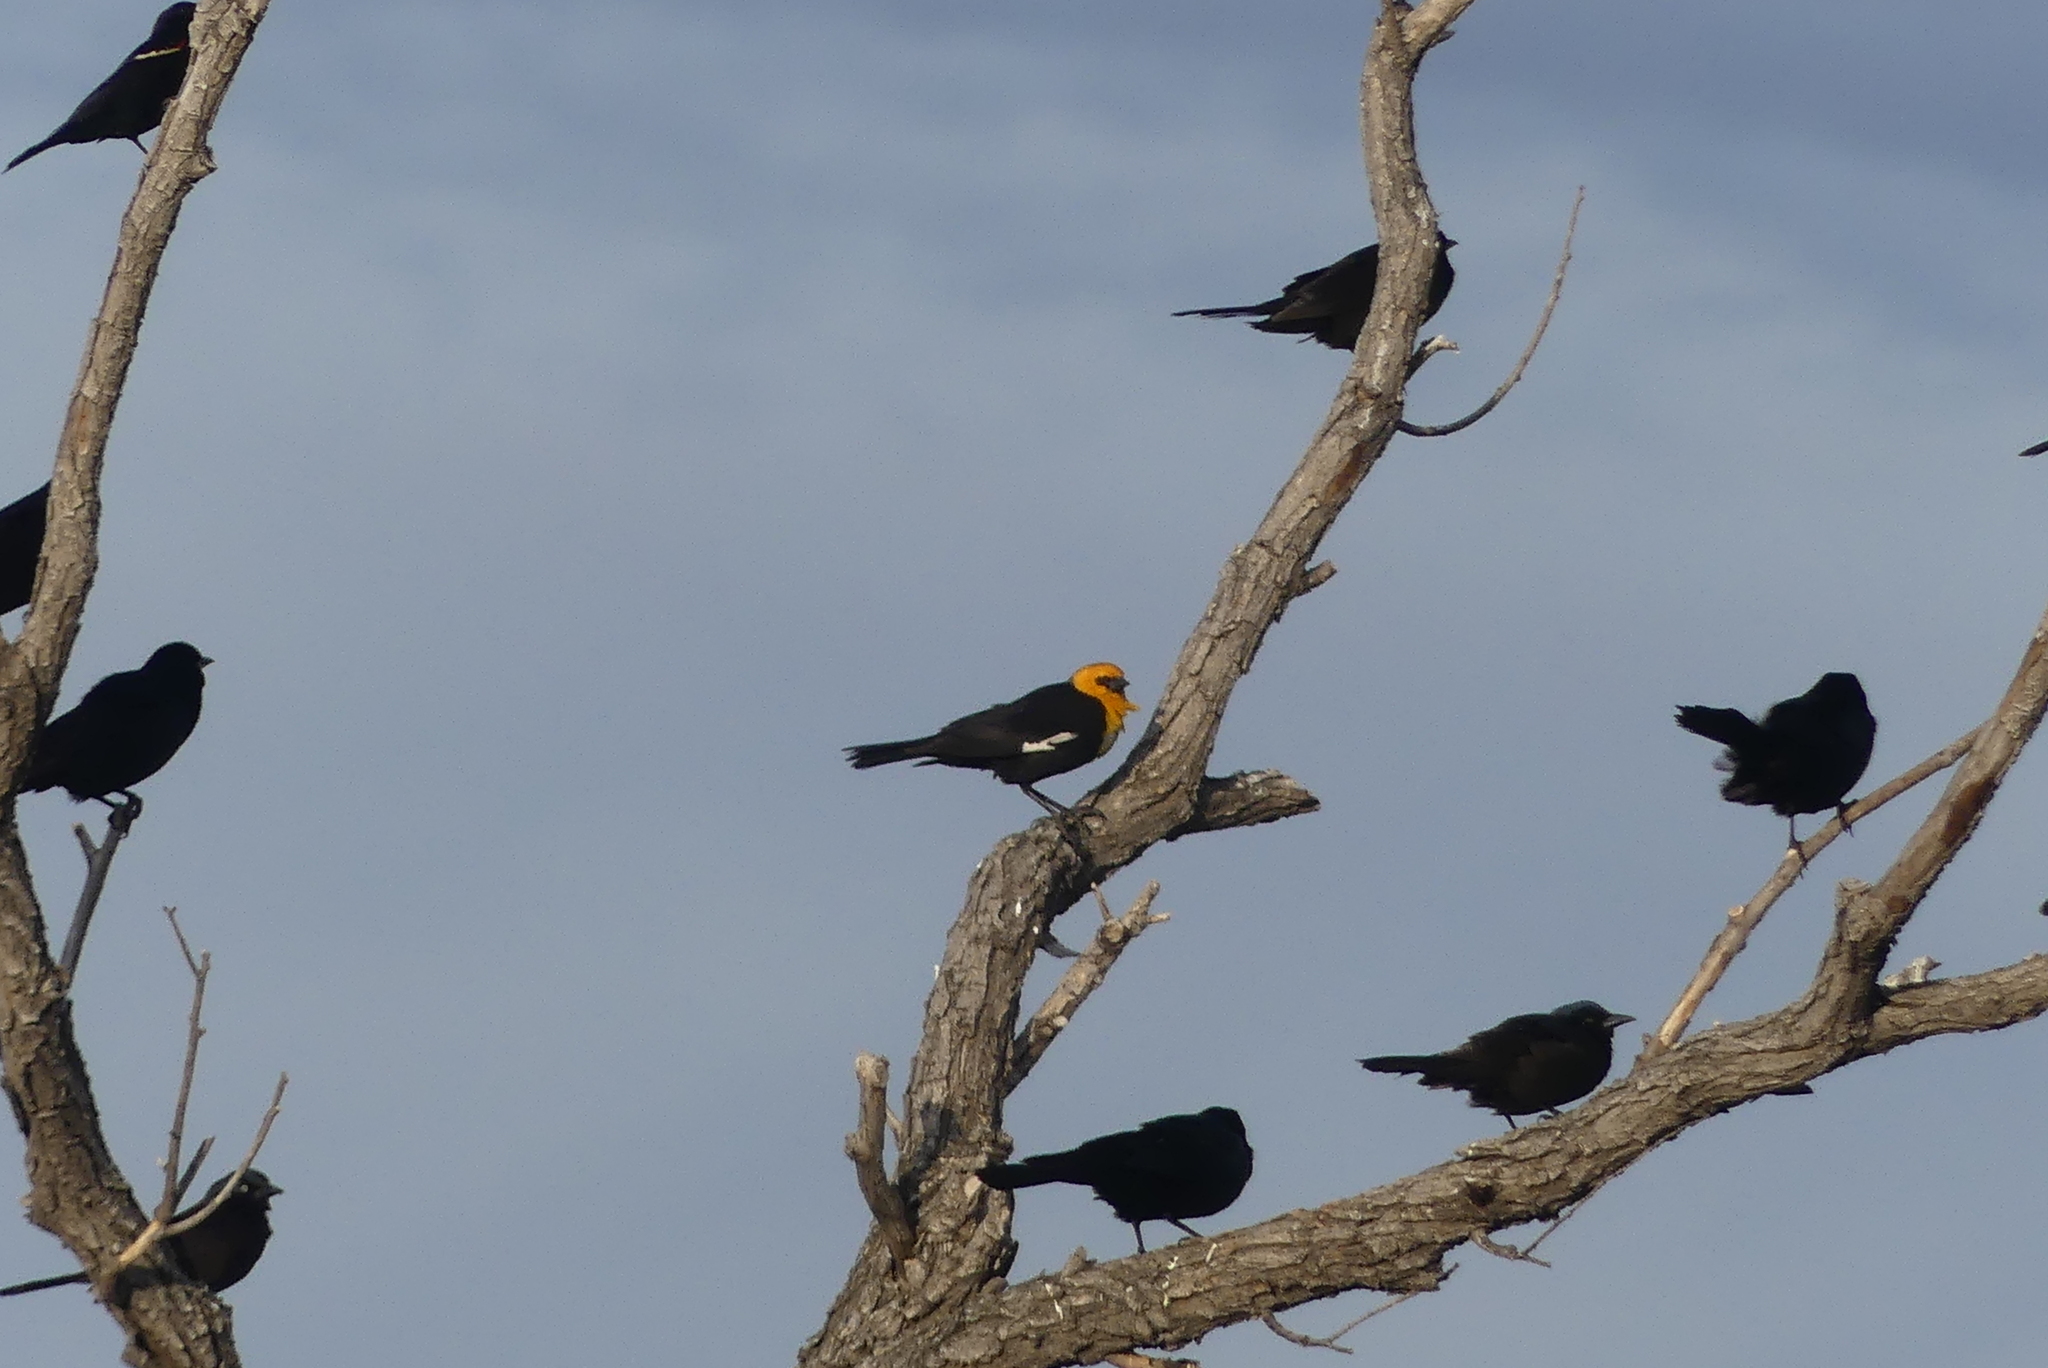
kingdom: Animalia
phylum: Chordata
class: Aves
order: Passeriformes
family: Icteridae
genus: Xanthocephalus
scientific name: Xanthocephalus xanthocephalus
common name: Yellow-headed blackbird
